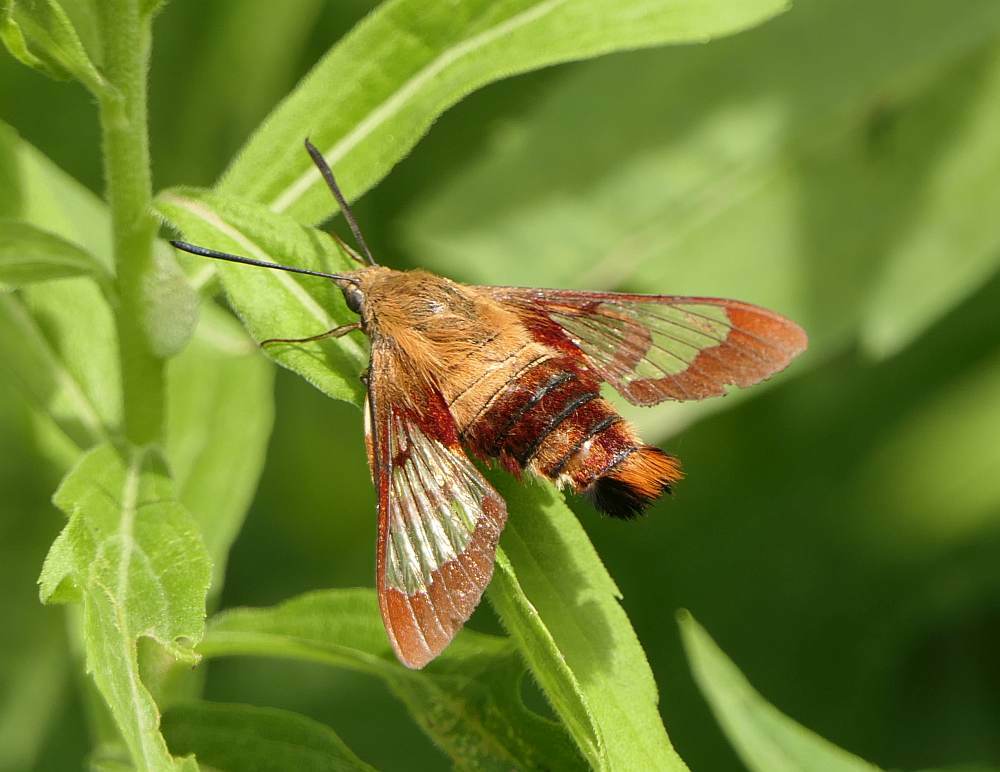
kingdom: Animalia
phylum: Arthropoda
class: Insecta
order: Lepidoptera
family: Sphingidae
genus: Hemaris
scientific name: Hemaris thysbe
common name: Common clear-wing
